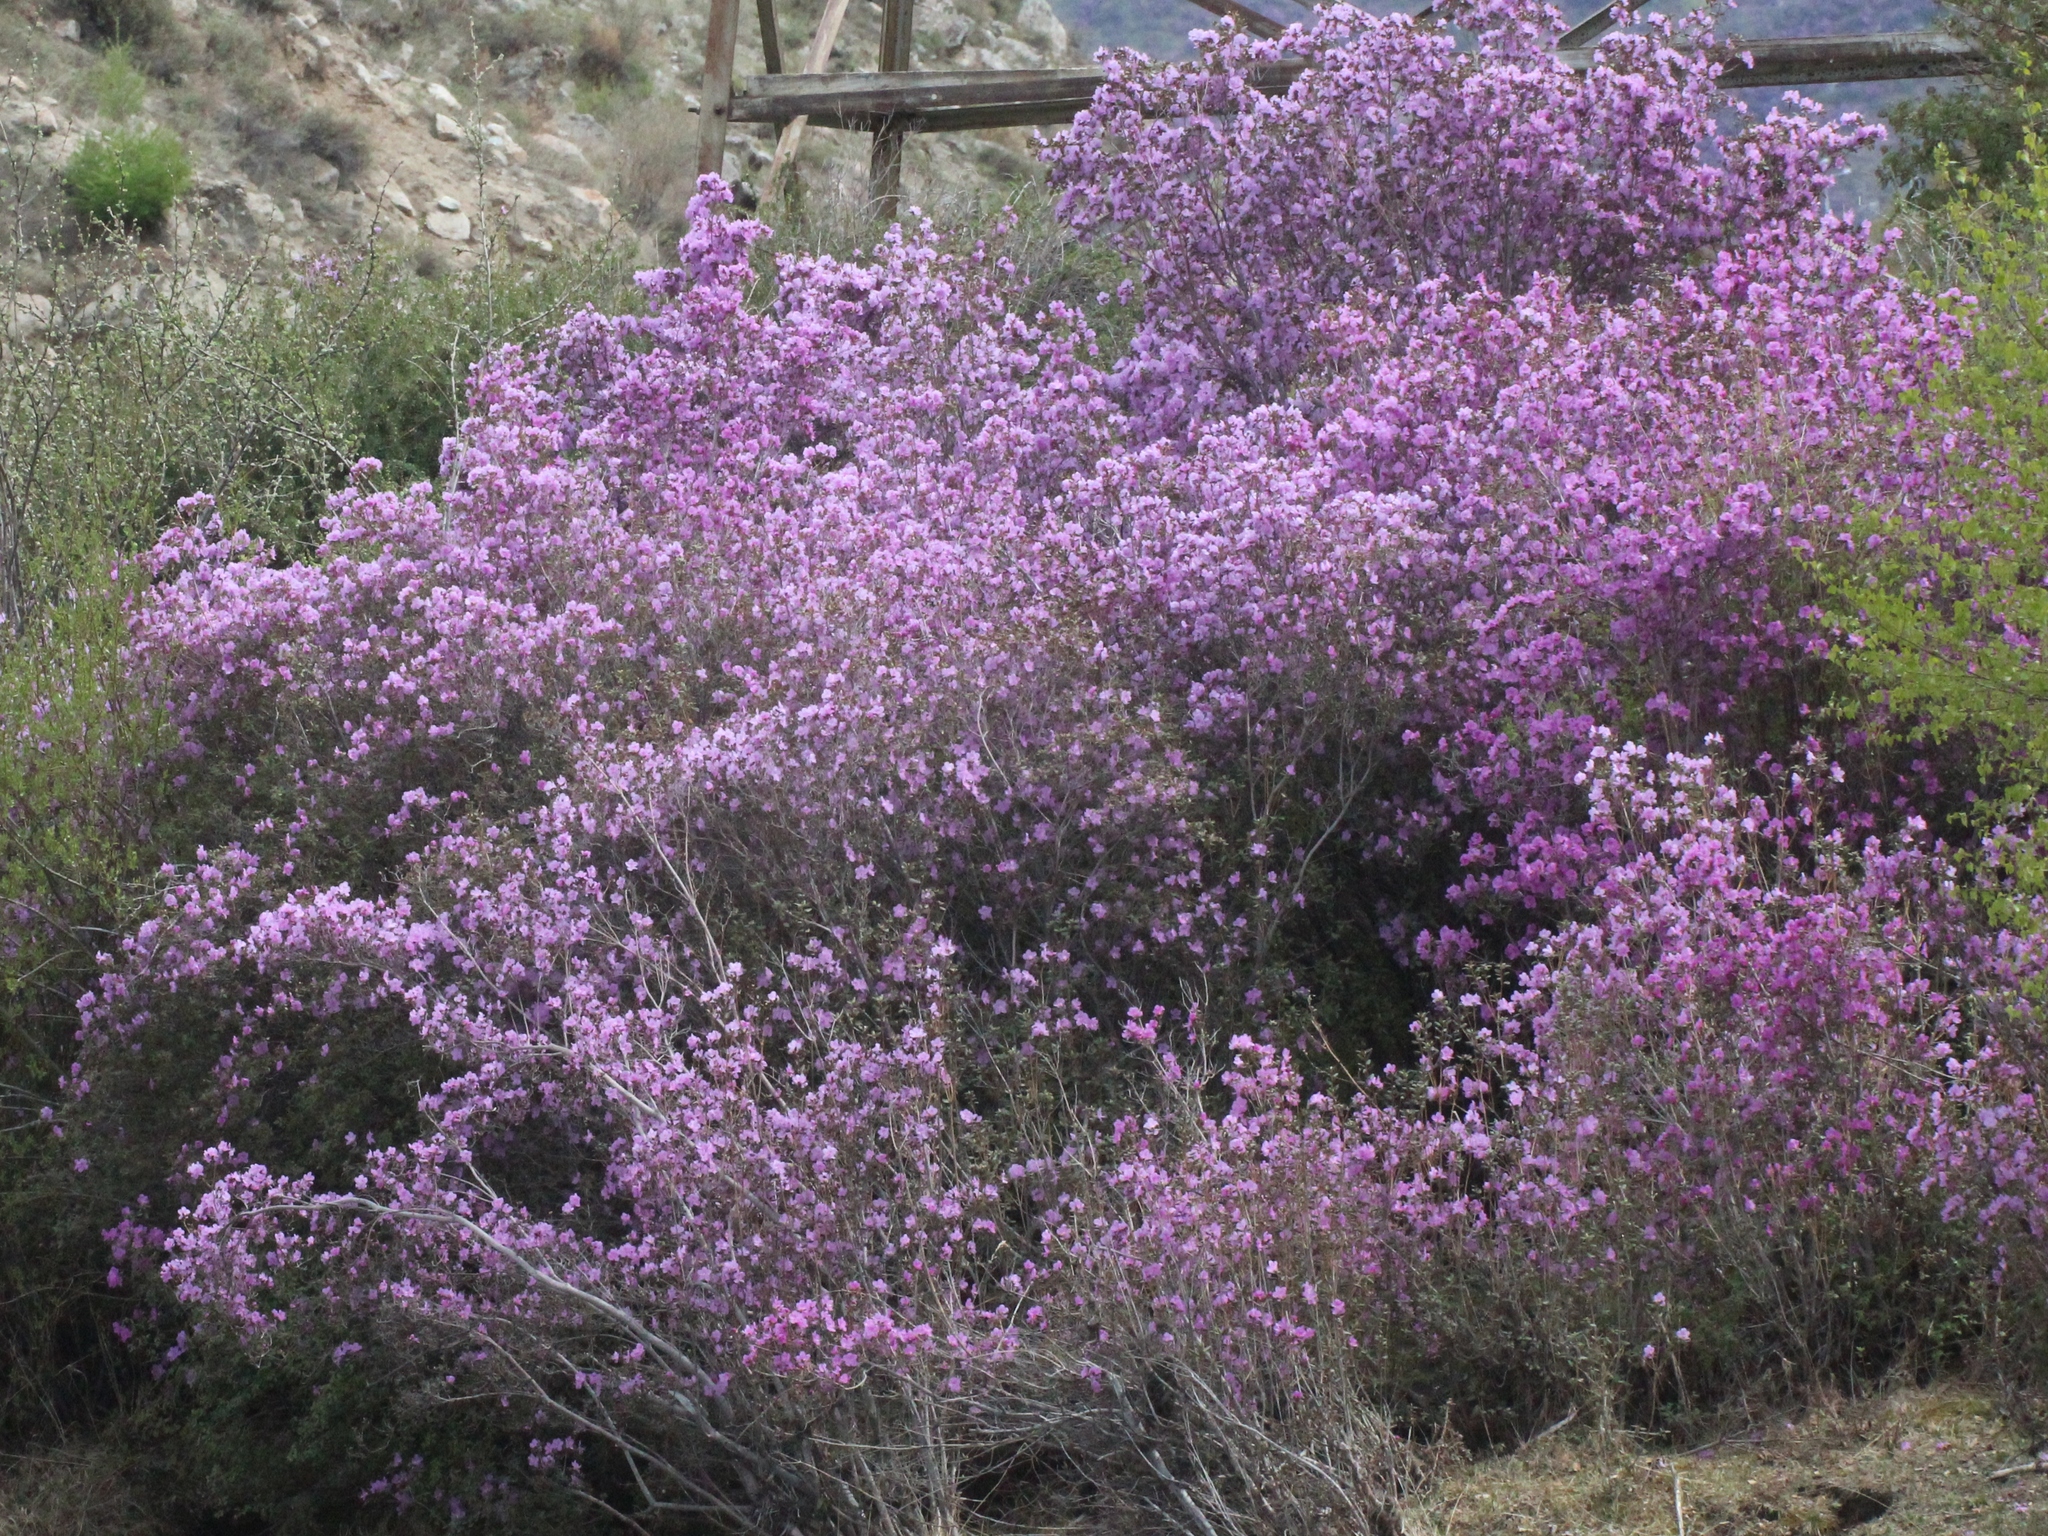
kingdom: Plantae
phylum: Tracheophyta
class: Magnoliopsida
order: Ericales
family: Ericaceae
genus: Rhododendron
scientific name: Rhododendron dauricum
